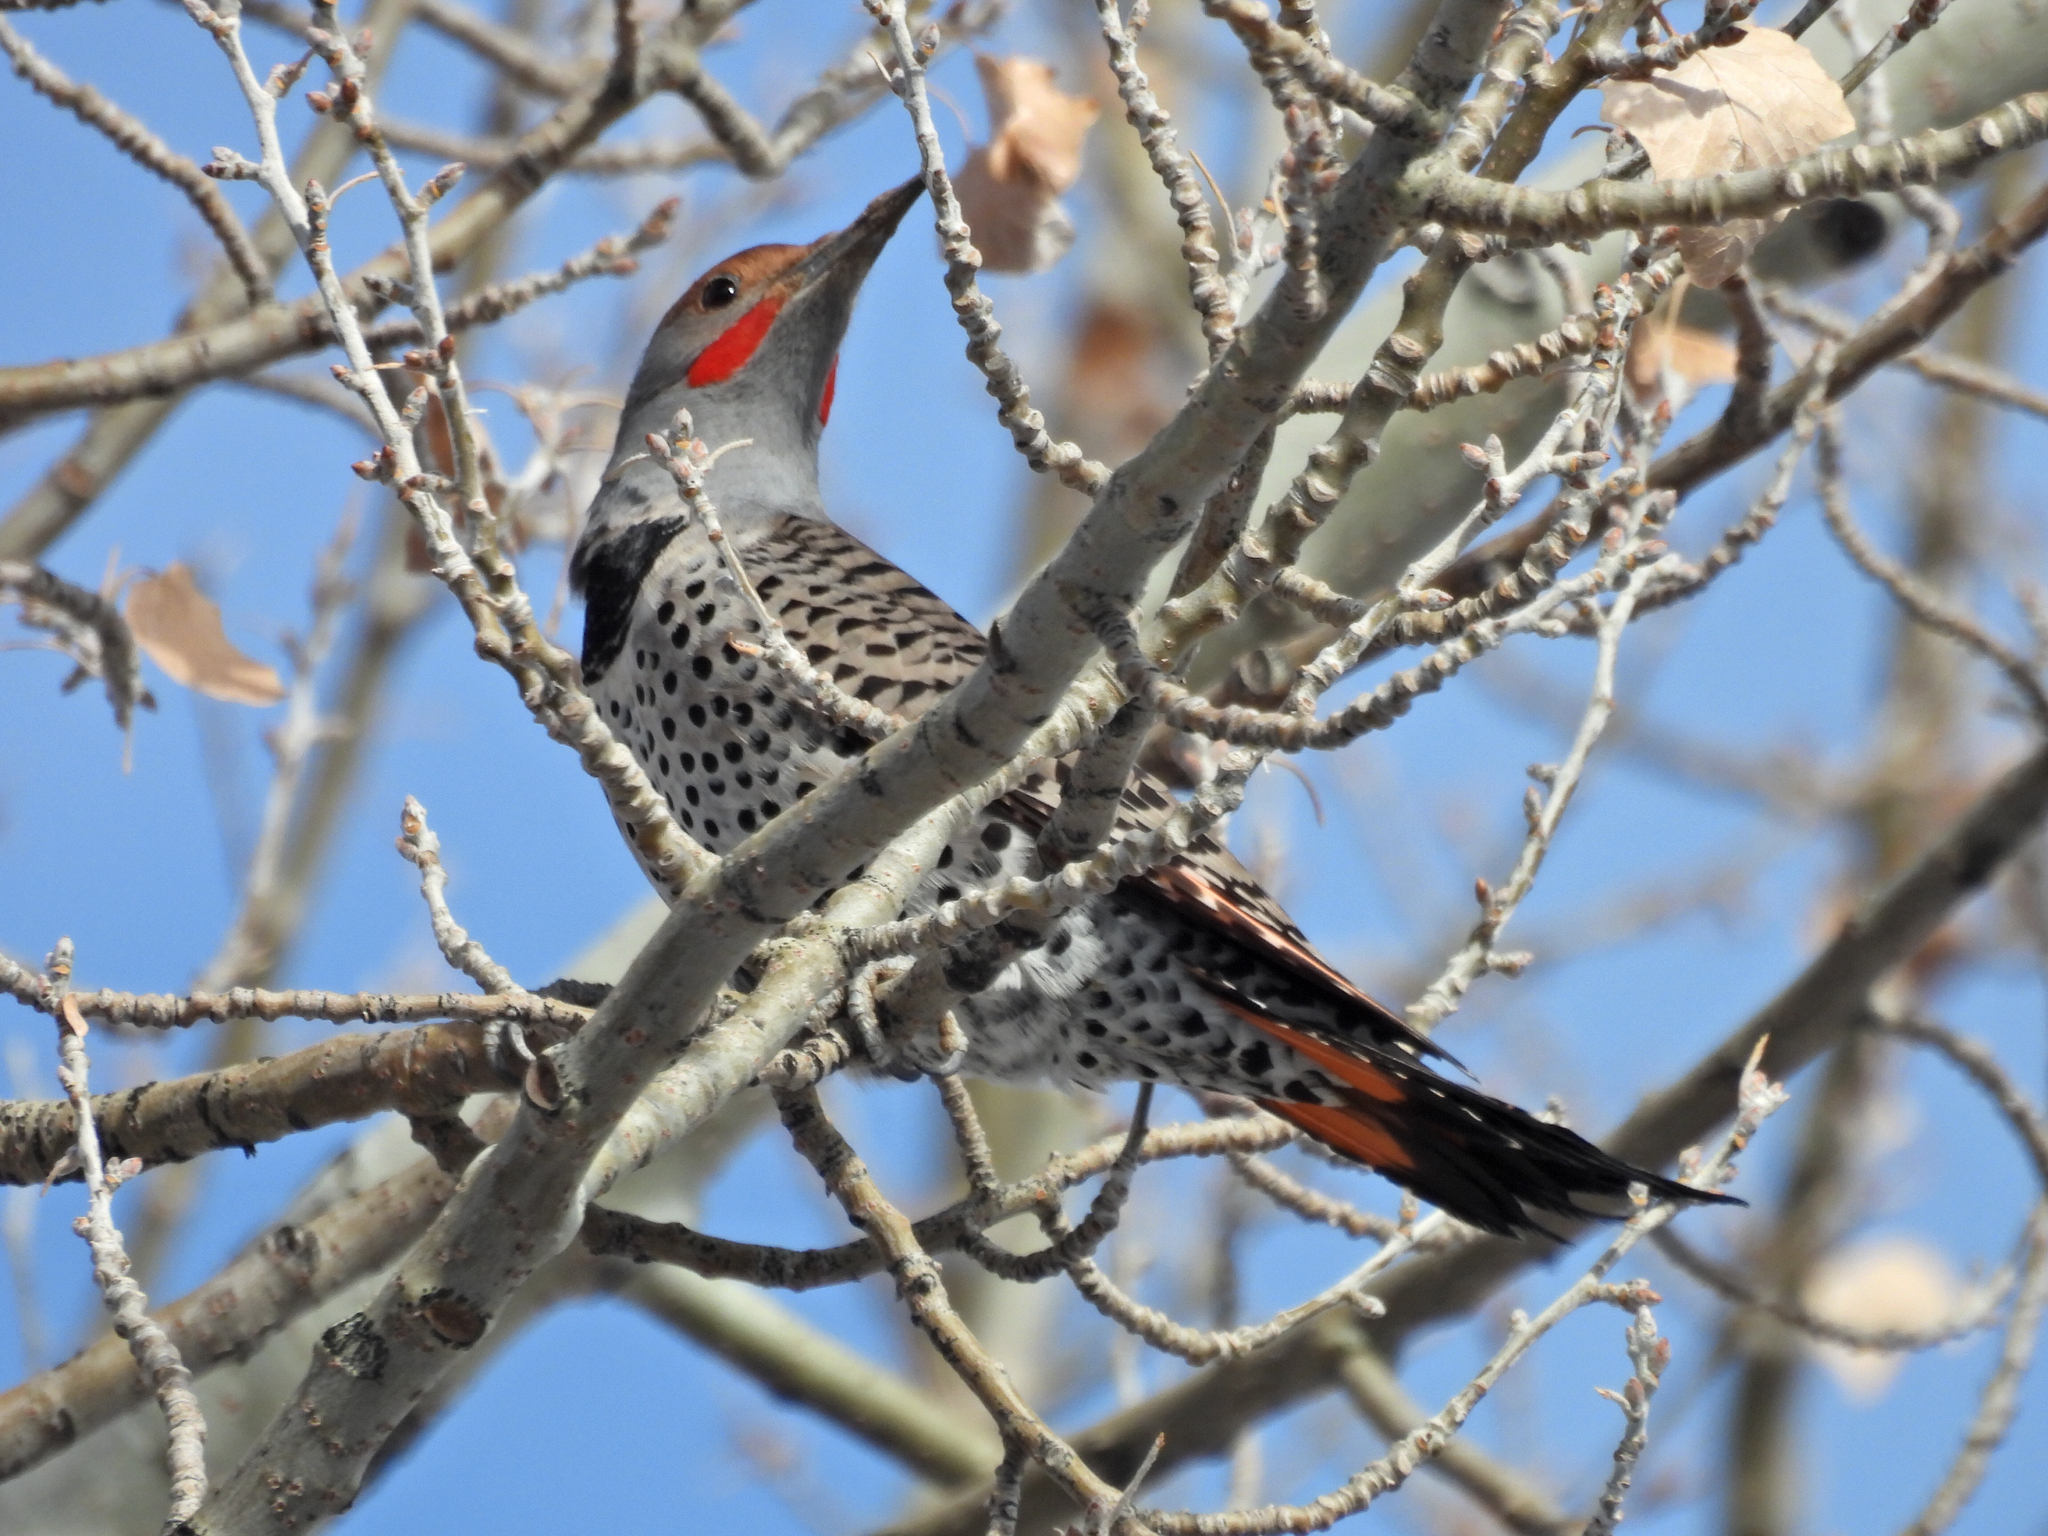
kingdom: Animalia
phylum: Chordata
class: Aves
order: Piciformes
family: Picidae
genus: Colaptes
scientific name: Colaptes auratus
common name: Northern flicker
